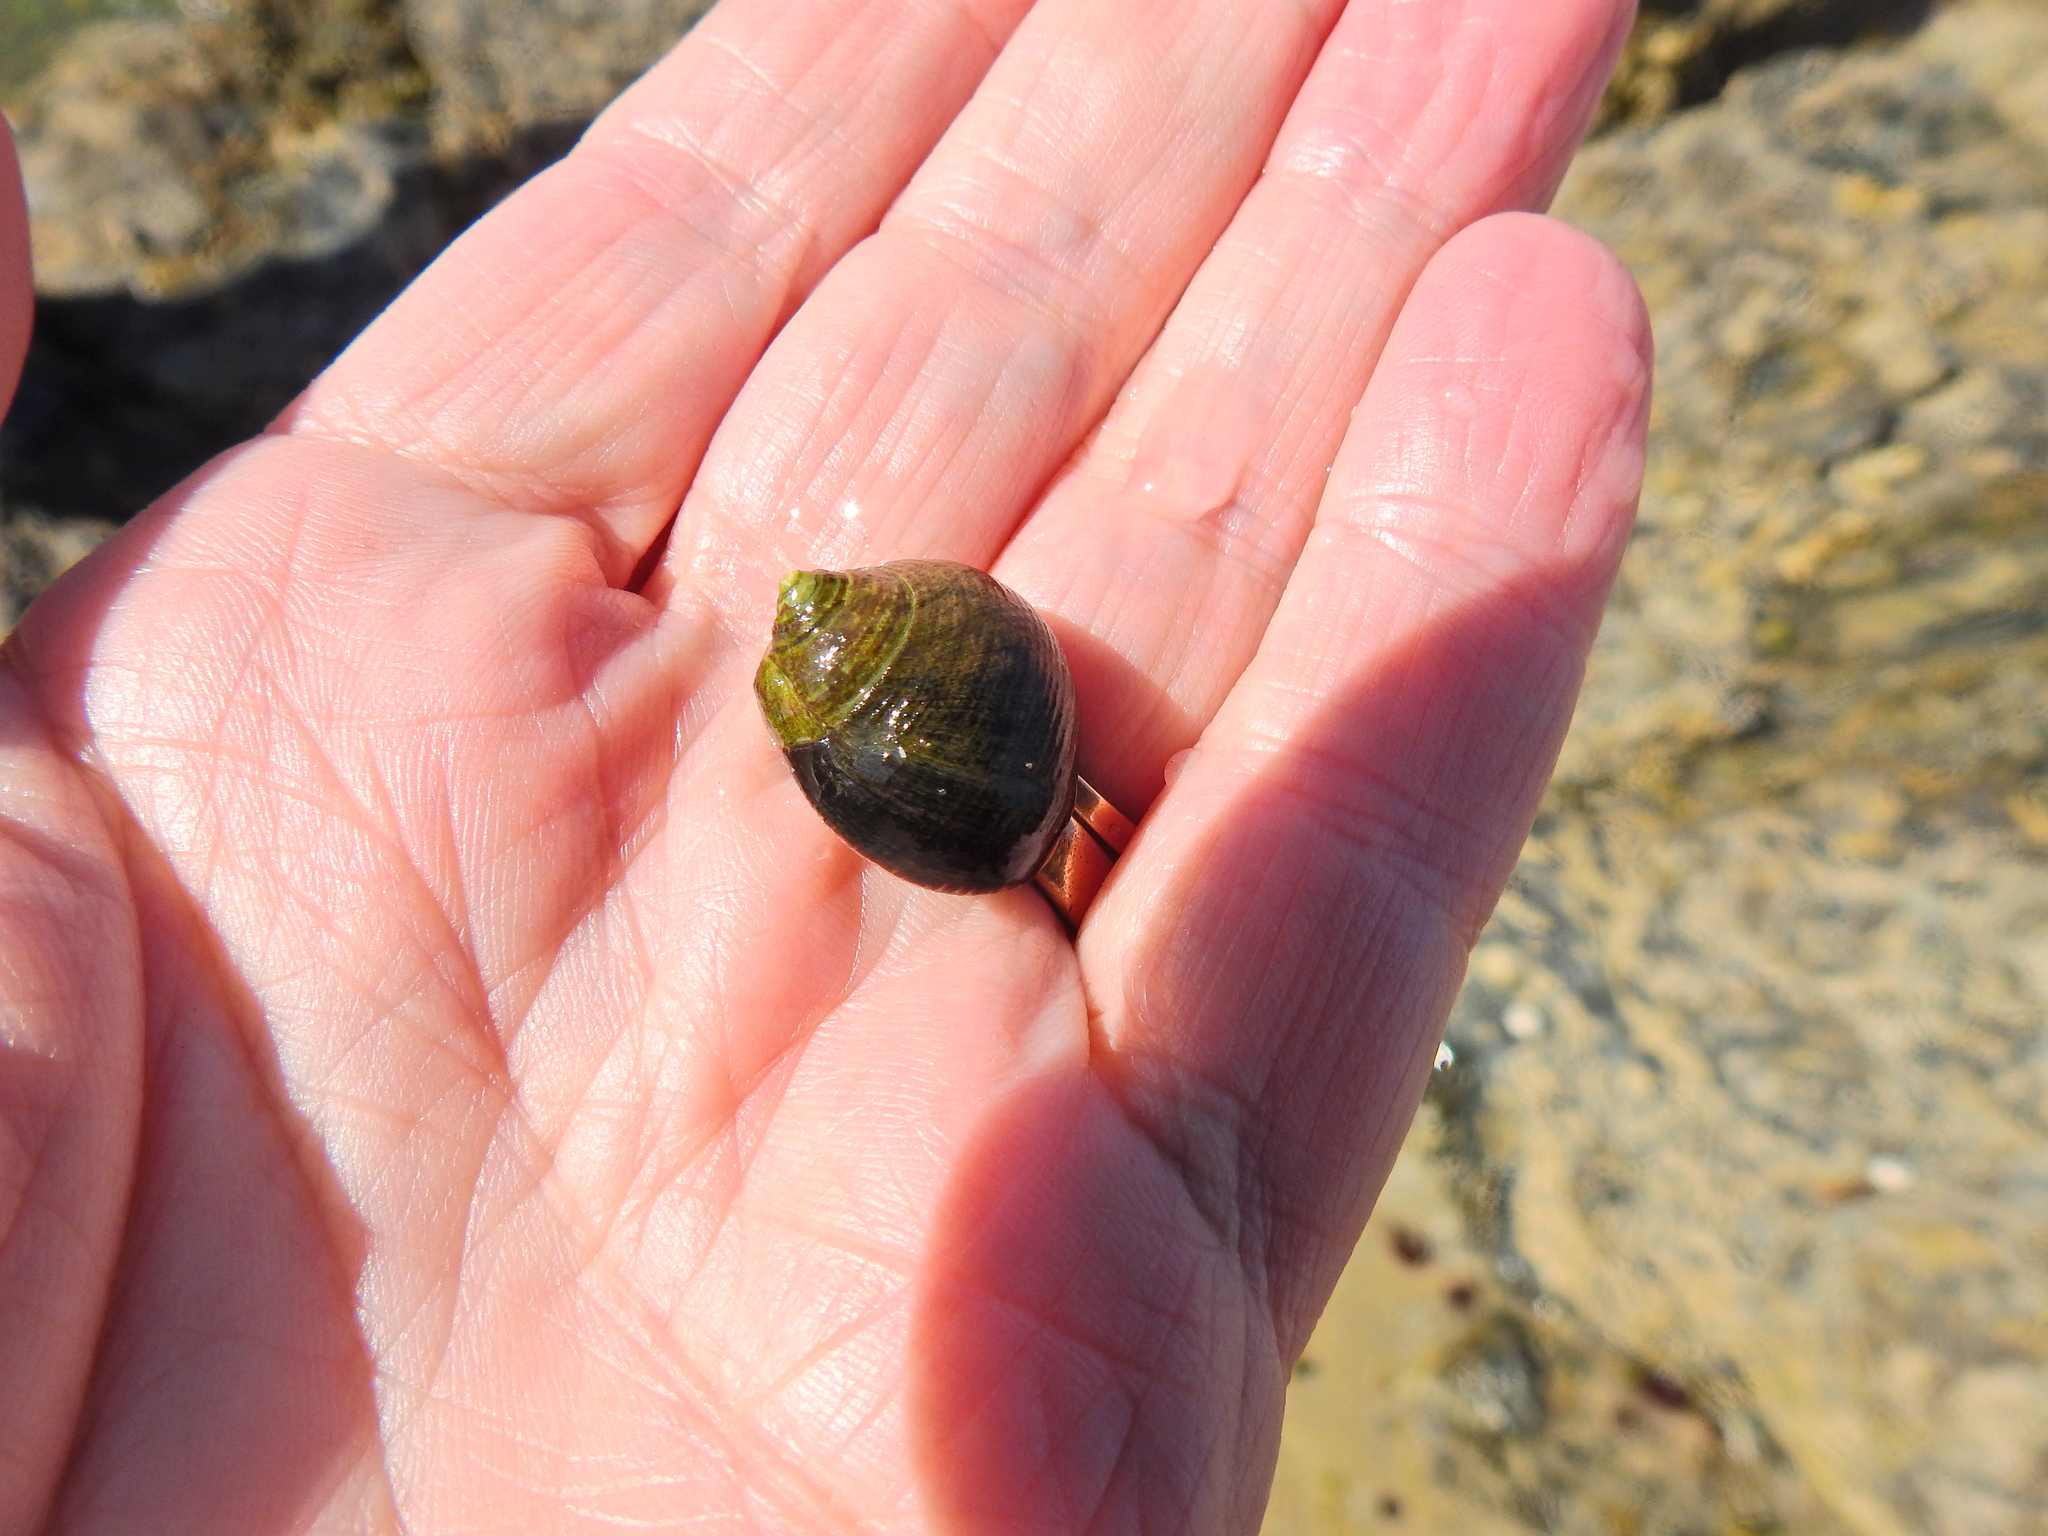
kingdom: Animalia
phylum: Mollusca
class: Gastropoda
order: Littorinimorpha
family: Littorinidae
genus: Littorina
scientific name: Littorina littorea
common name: Common periwinkle
